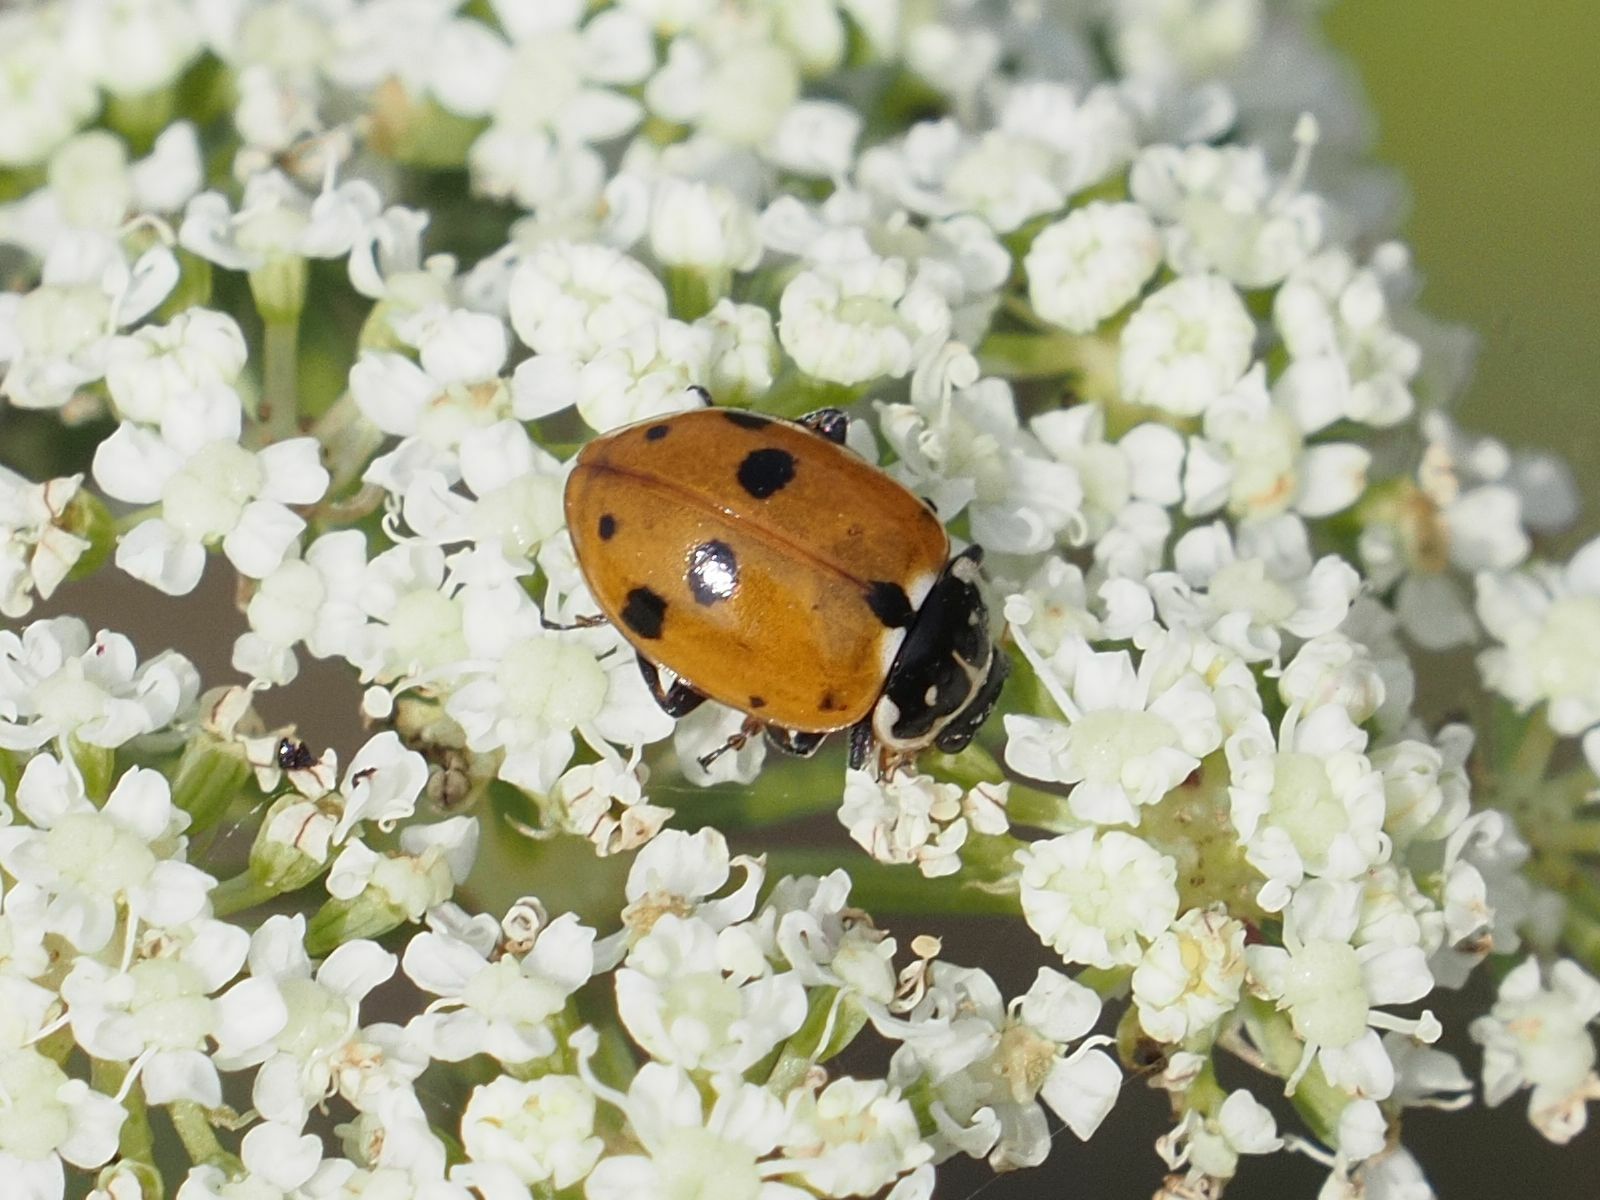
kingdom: Animalia
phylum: Arthropoda
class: Insecta
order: Coleoptera
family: Coccinellidae
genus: Hippodamia
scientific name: Hippodamia variegata
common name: Ladybird beetle
